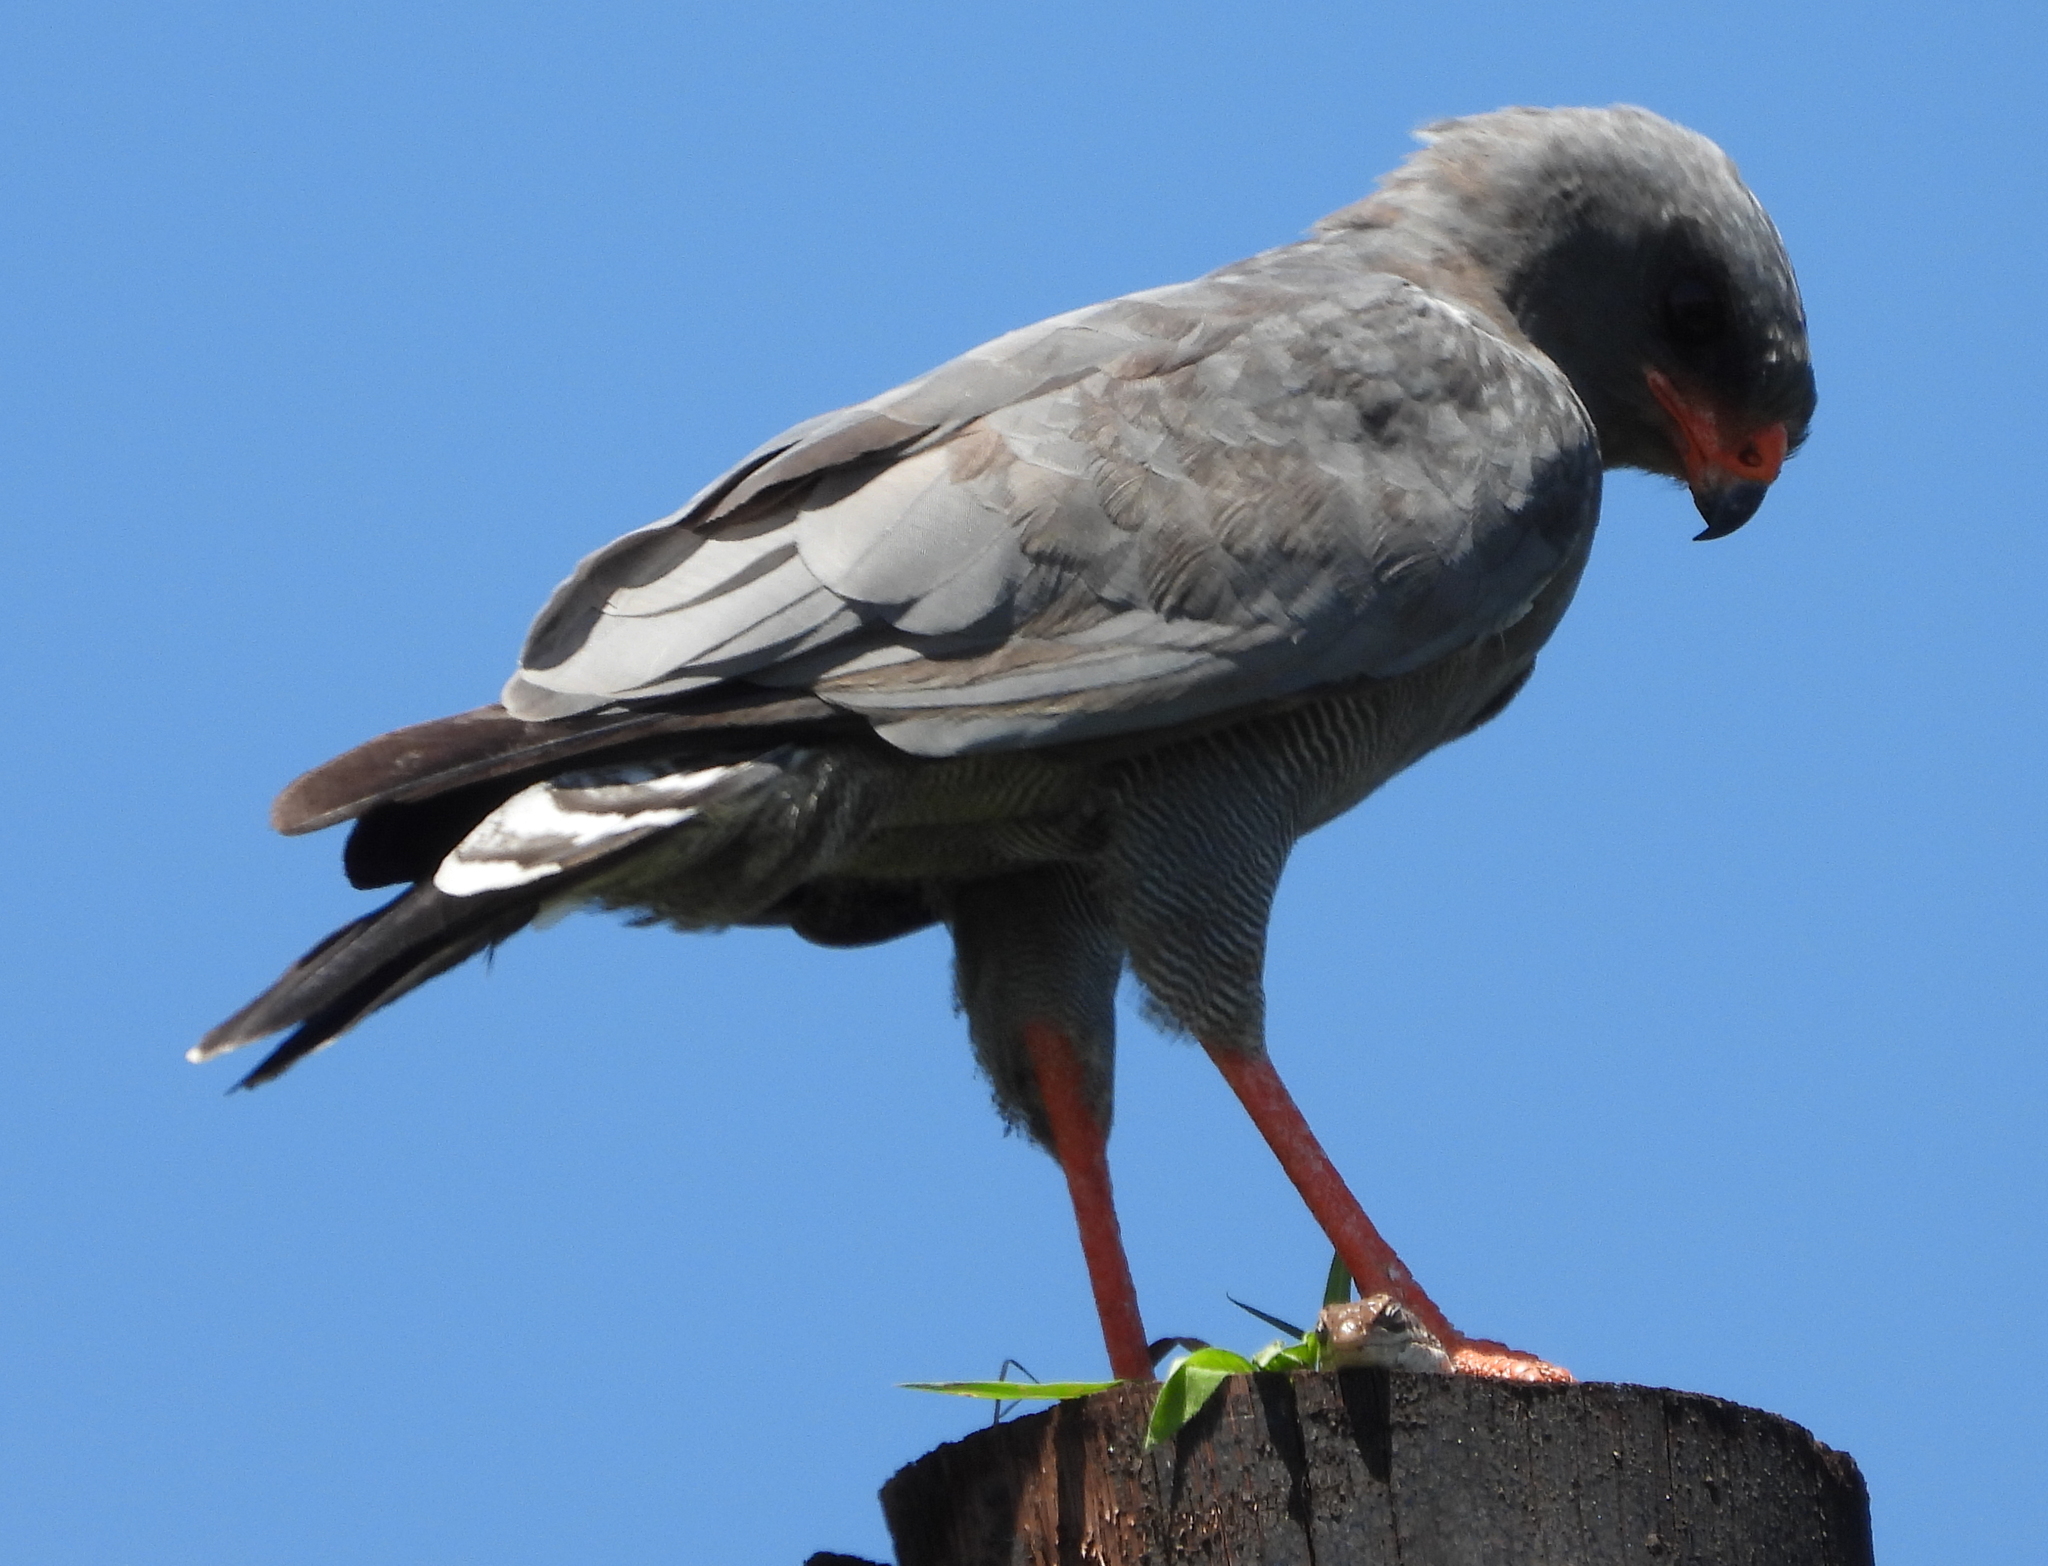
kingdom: Animalia
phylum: Chordata
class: Aves
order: Accipitriformes
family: Accipitridae
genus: Melierax
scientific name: Melierax metabates
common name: Dark chanting-goshawk
